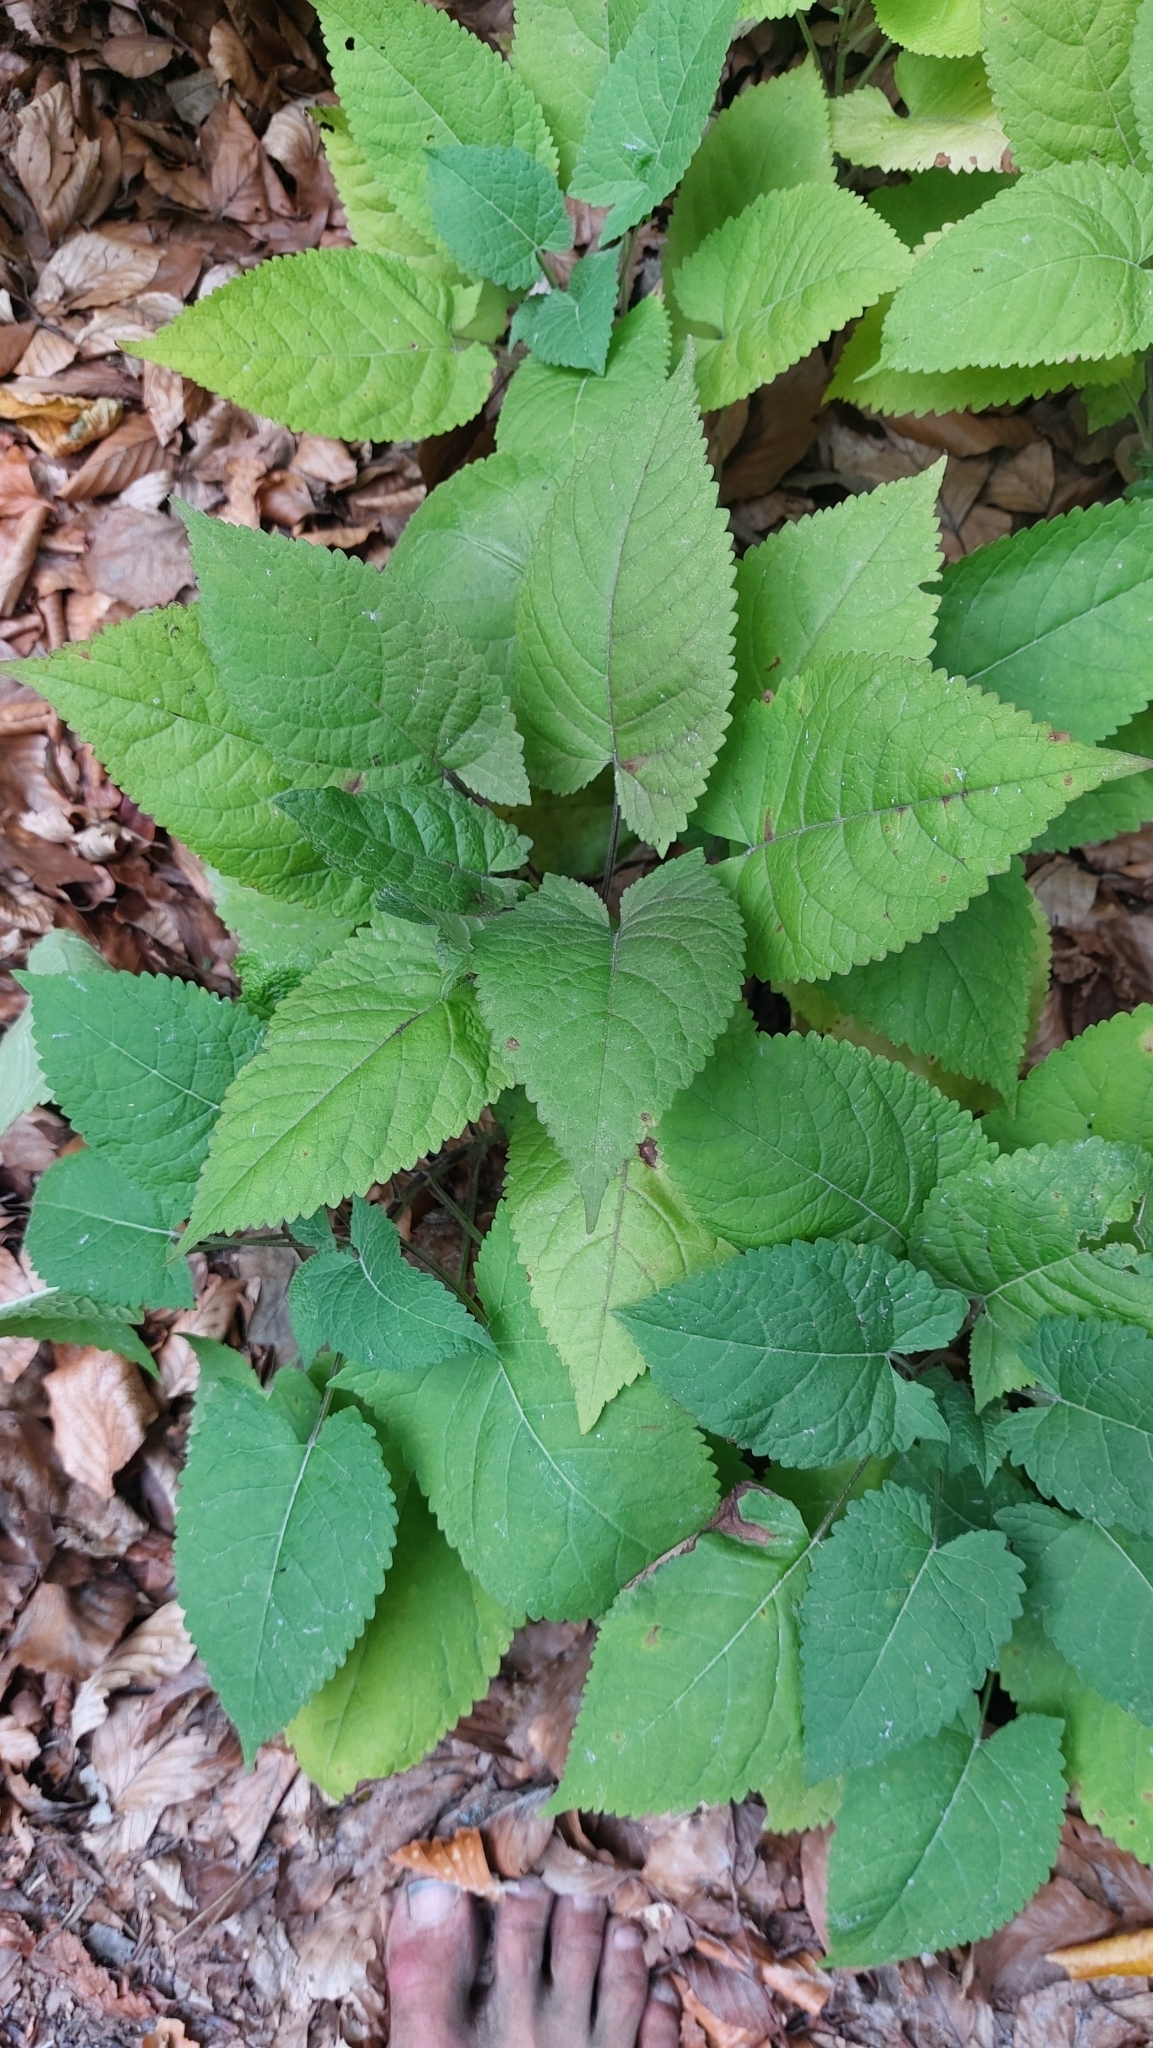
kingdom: Plantae
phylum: Tracheophyta
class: Magnoliopsida
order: Lamiales
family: Lamiaceae
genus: Salvia
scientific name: Salvia glutinosa
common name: Sticky clary
